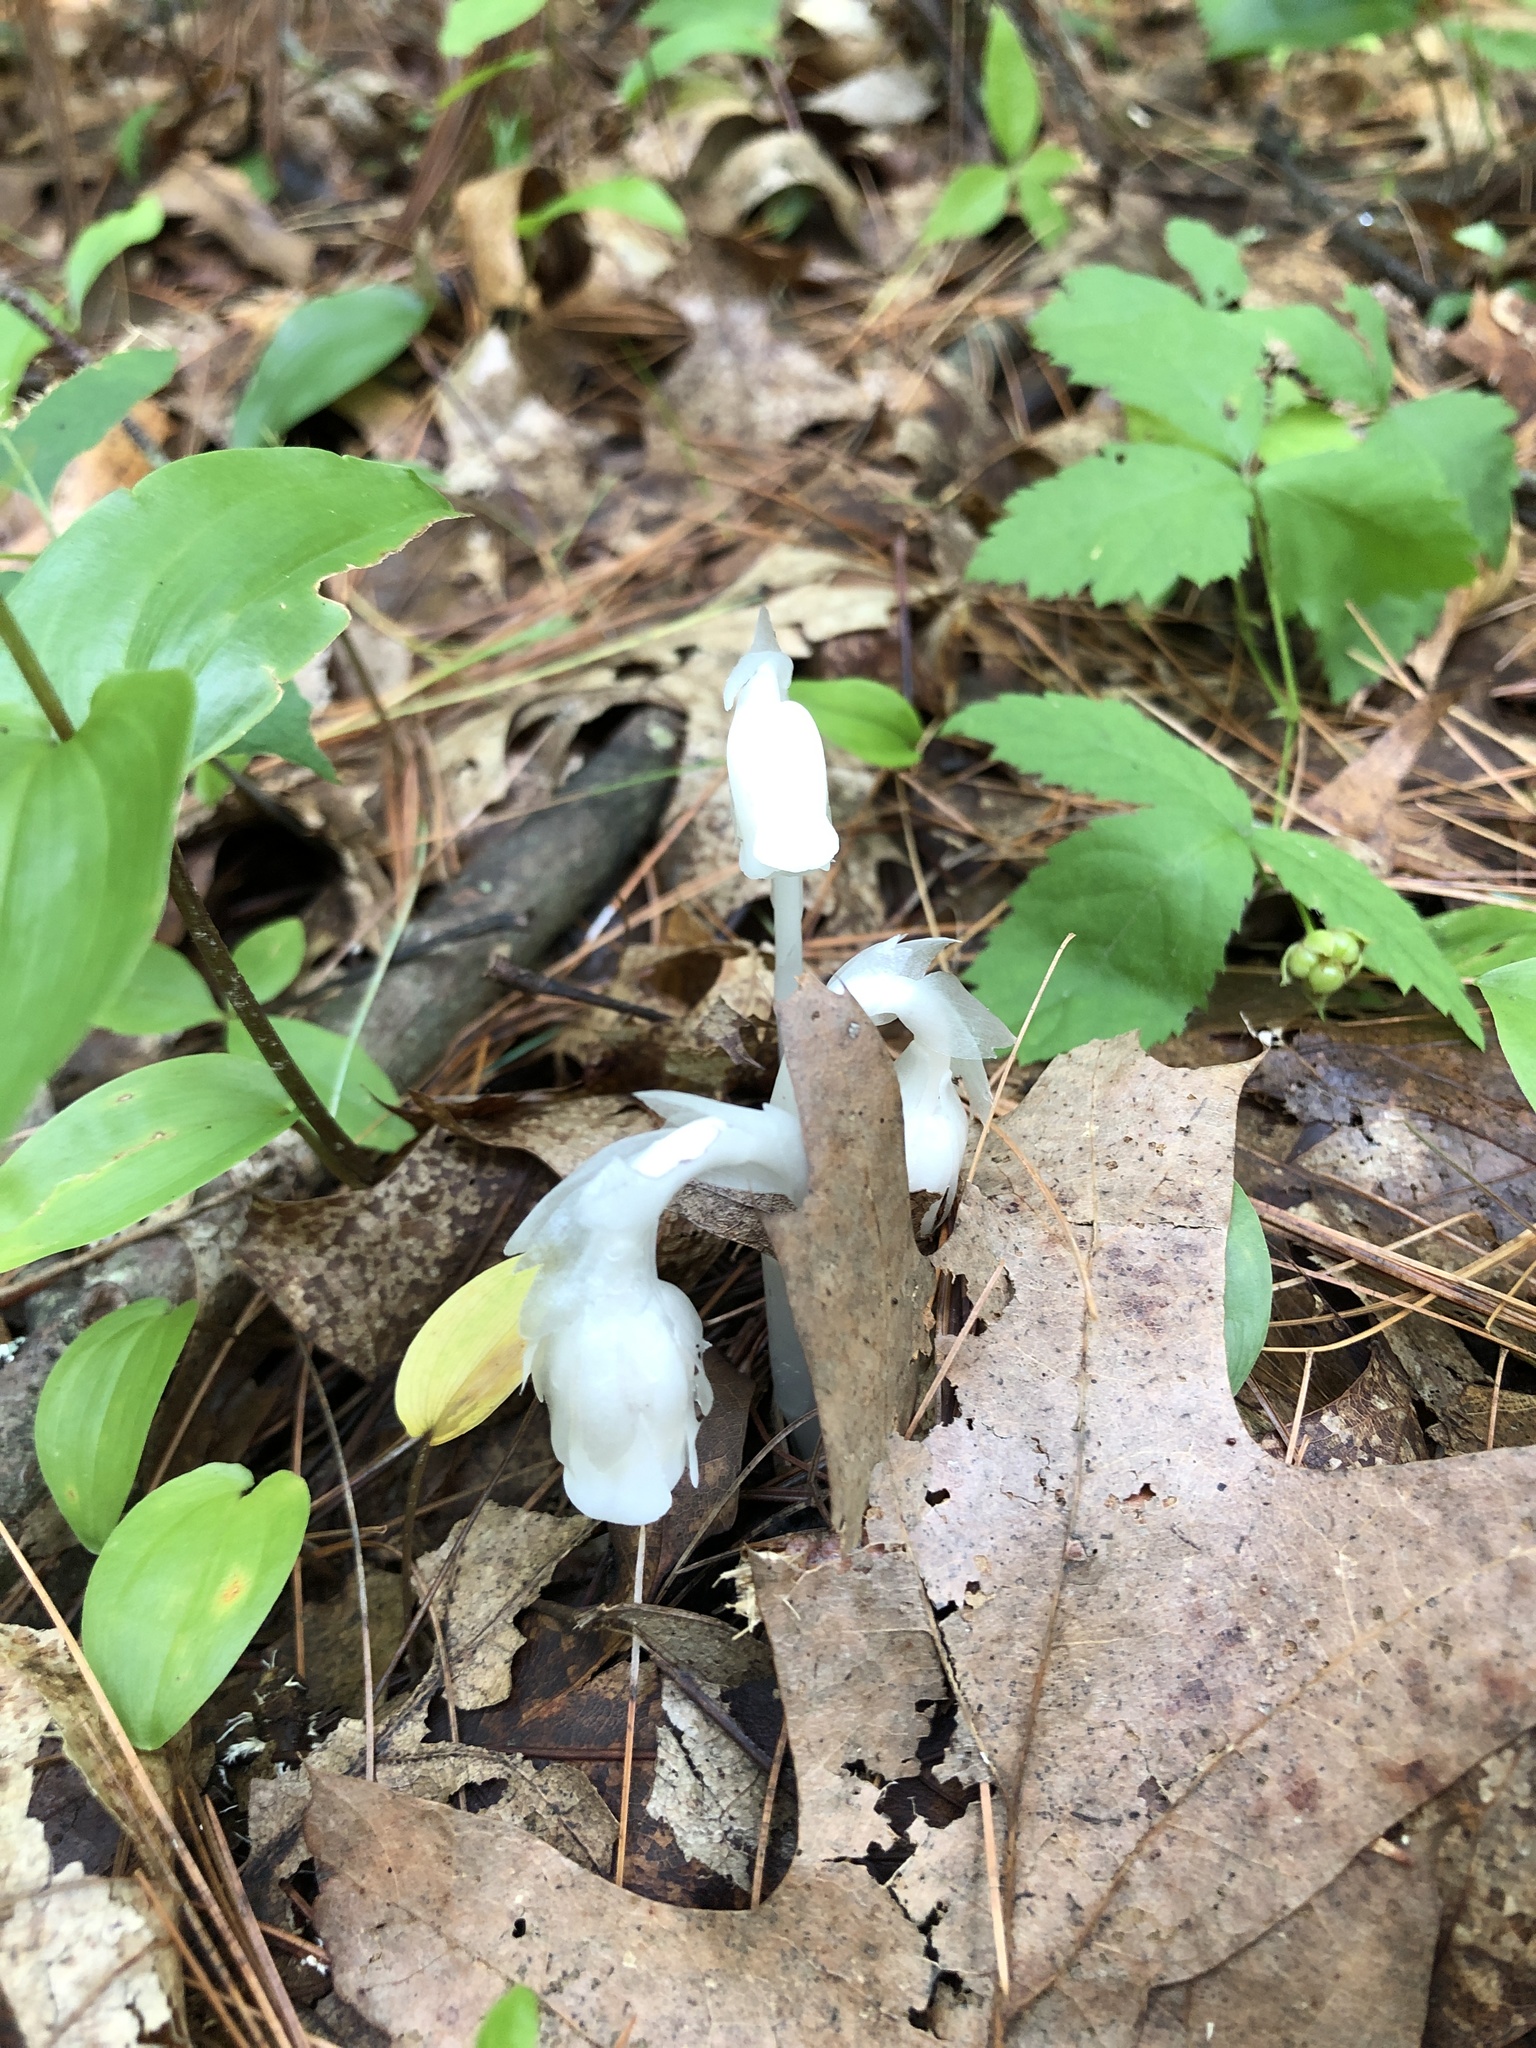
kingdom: Plantae
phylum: Tracheophyta
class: Magnoliopsida
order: Ericales
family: Ericaceae
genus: Monotropa
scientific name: Monotropa uniflora
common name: Convulsion root
